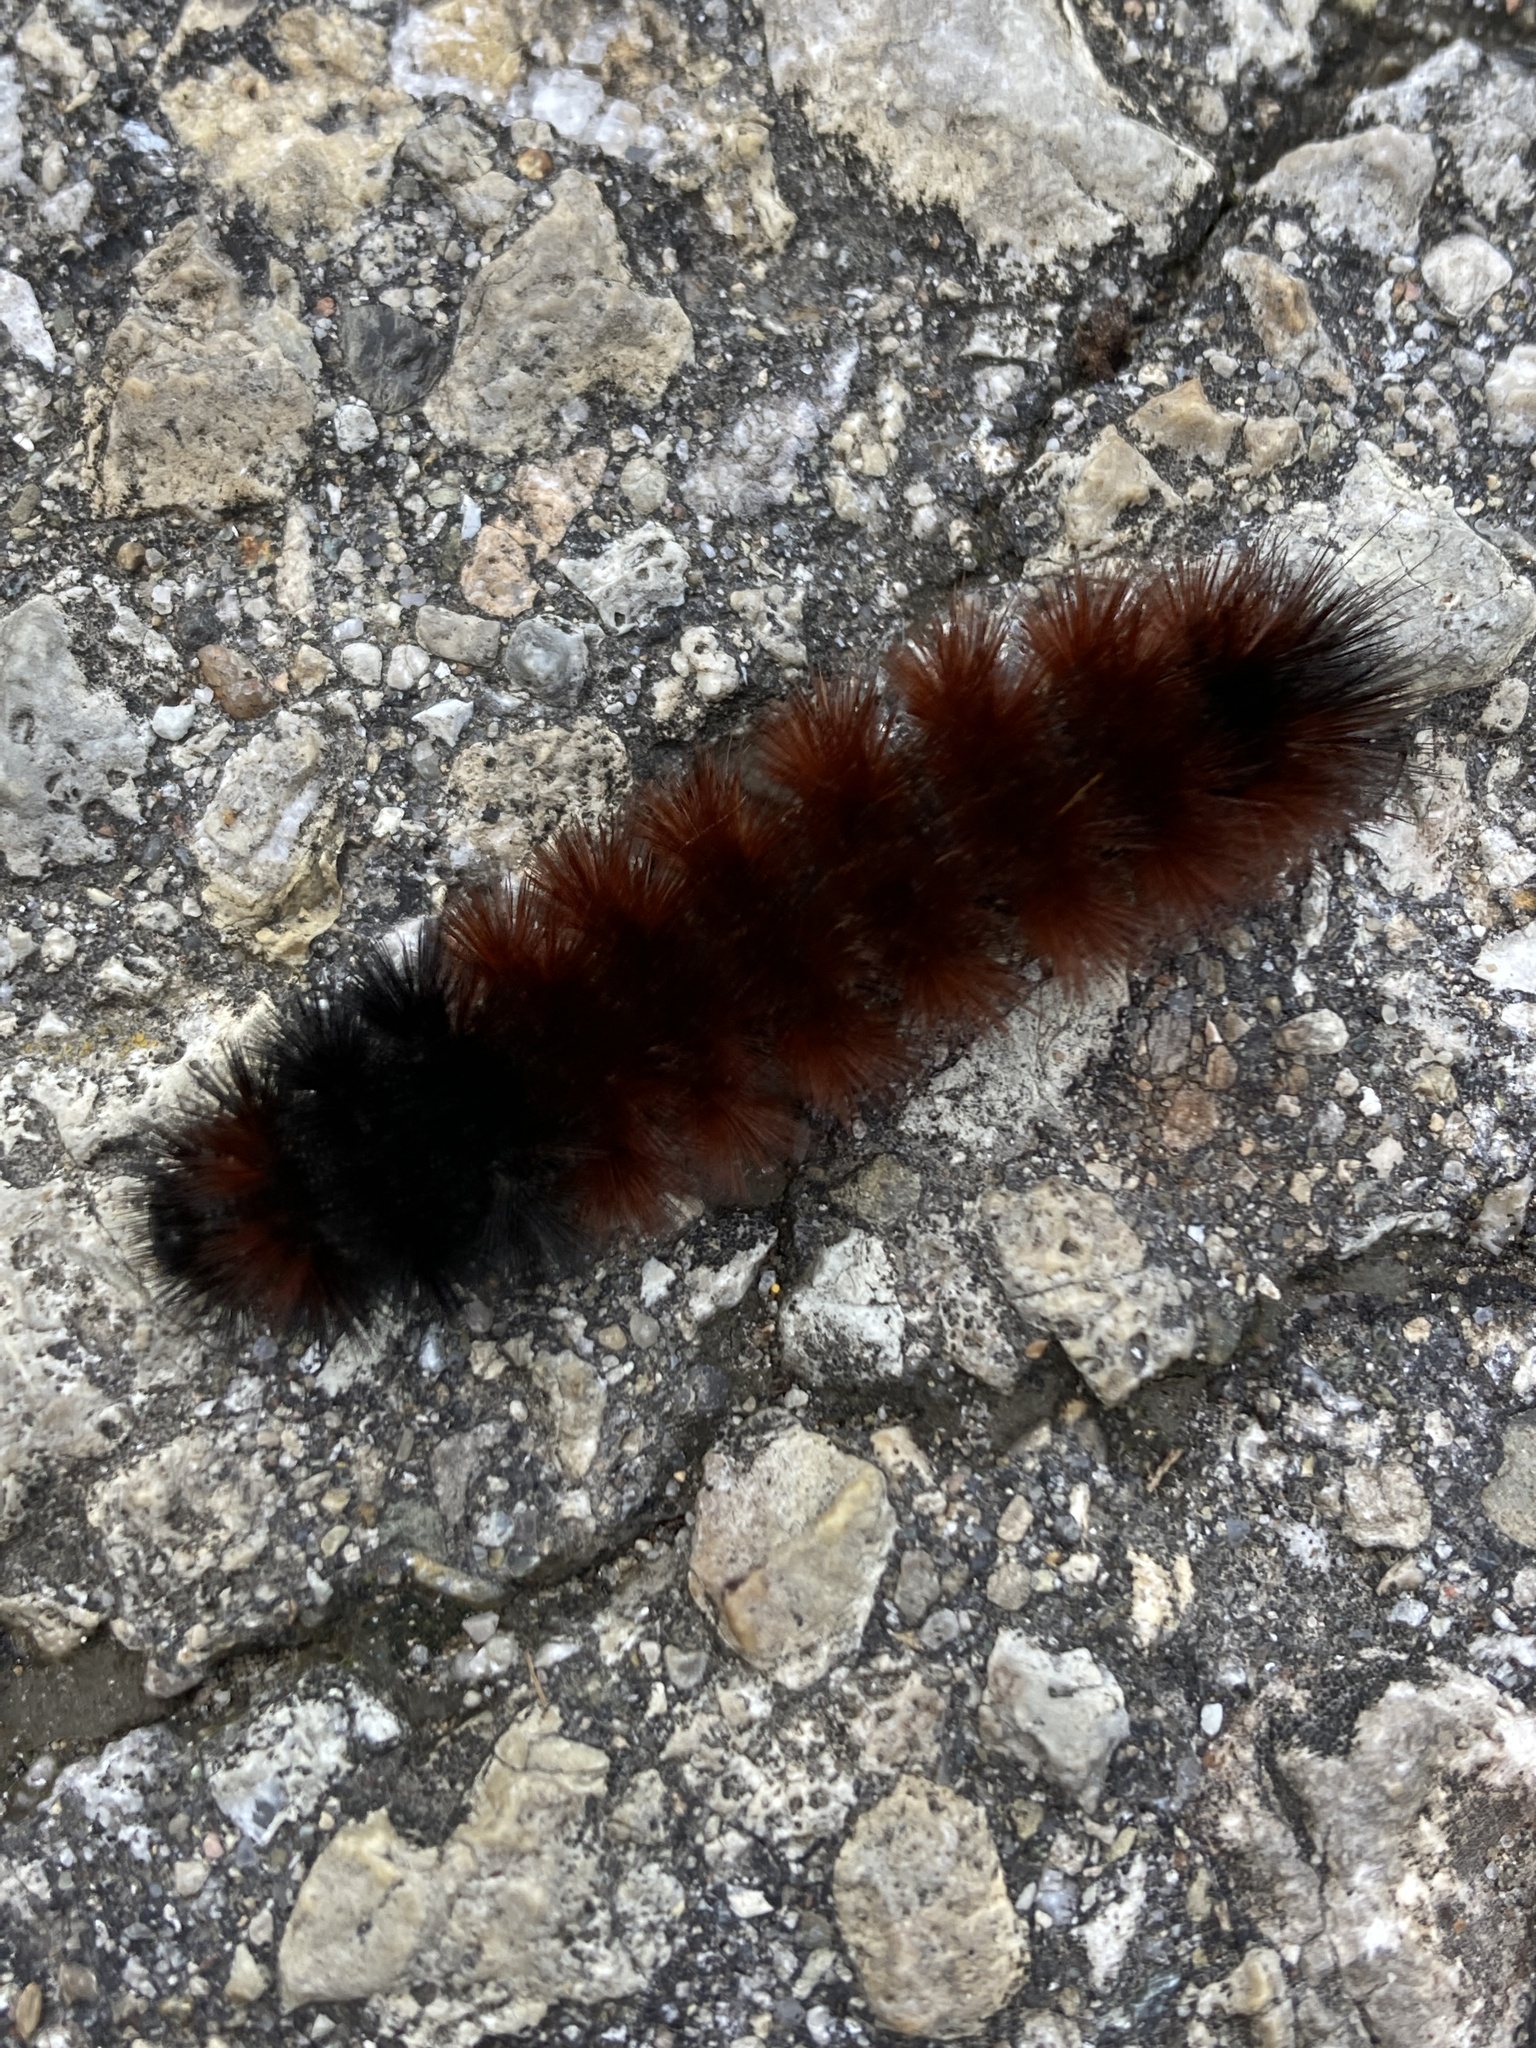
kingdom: Animalia
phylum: Arthropoda
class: Insecta
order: Lepidoptera
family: Erebidae
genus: Pyrrharctia
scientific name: Pyrrharctia isabella
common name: Isabella tiger moth
